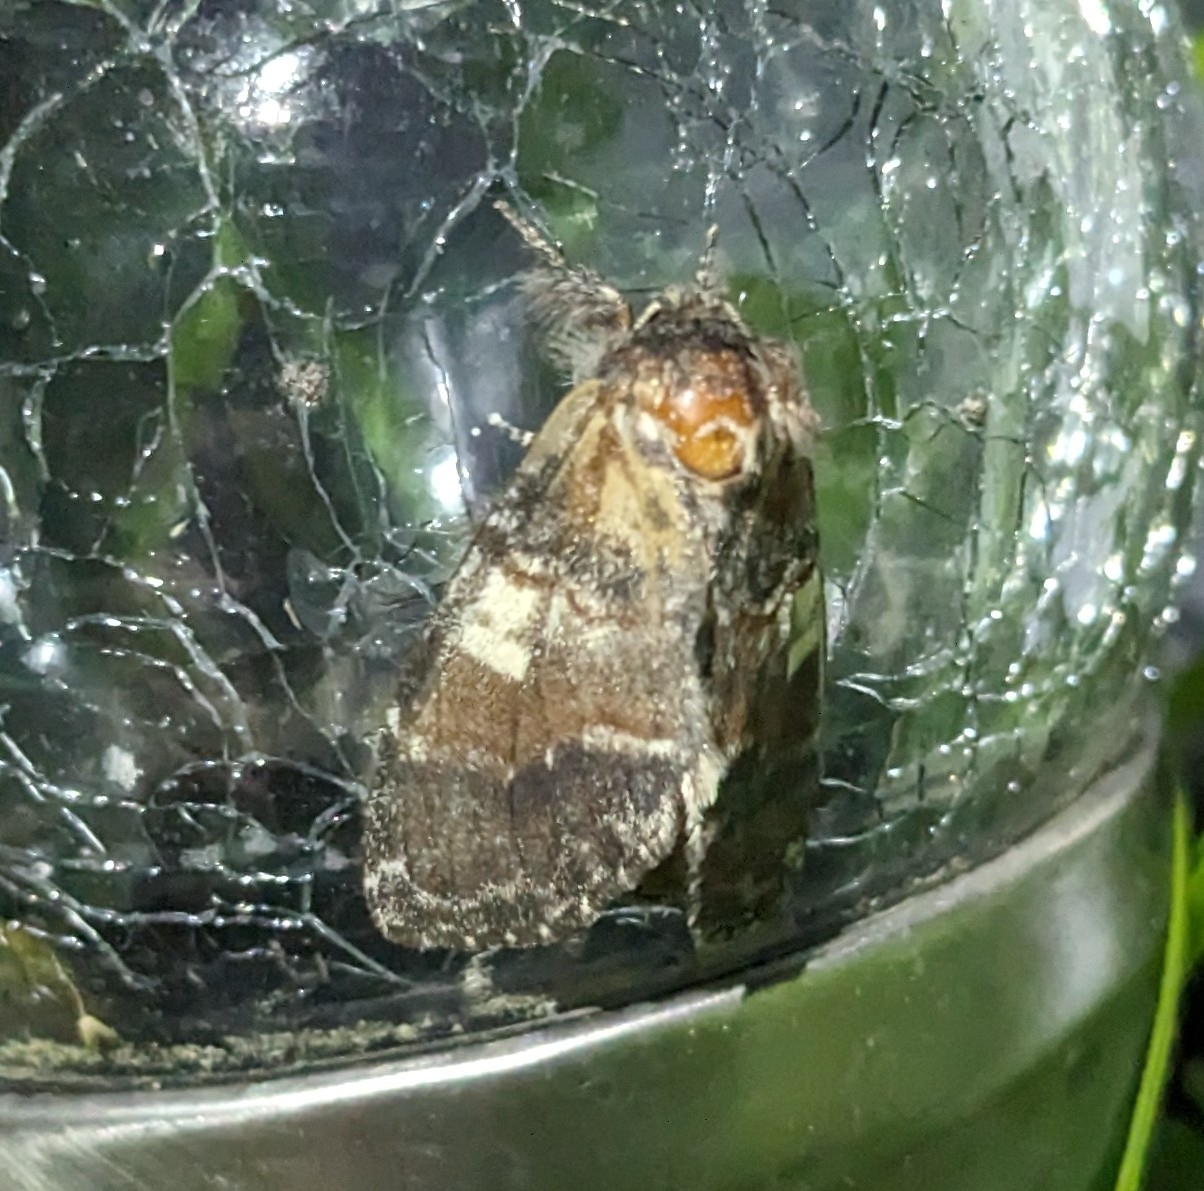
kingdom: Animalia
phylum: Arthropoda
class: Insecta
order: Lepidoptera
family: Notodontidae
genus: Peridea
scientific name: Peridea ferruginea
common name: Chocolate prominent
